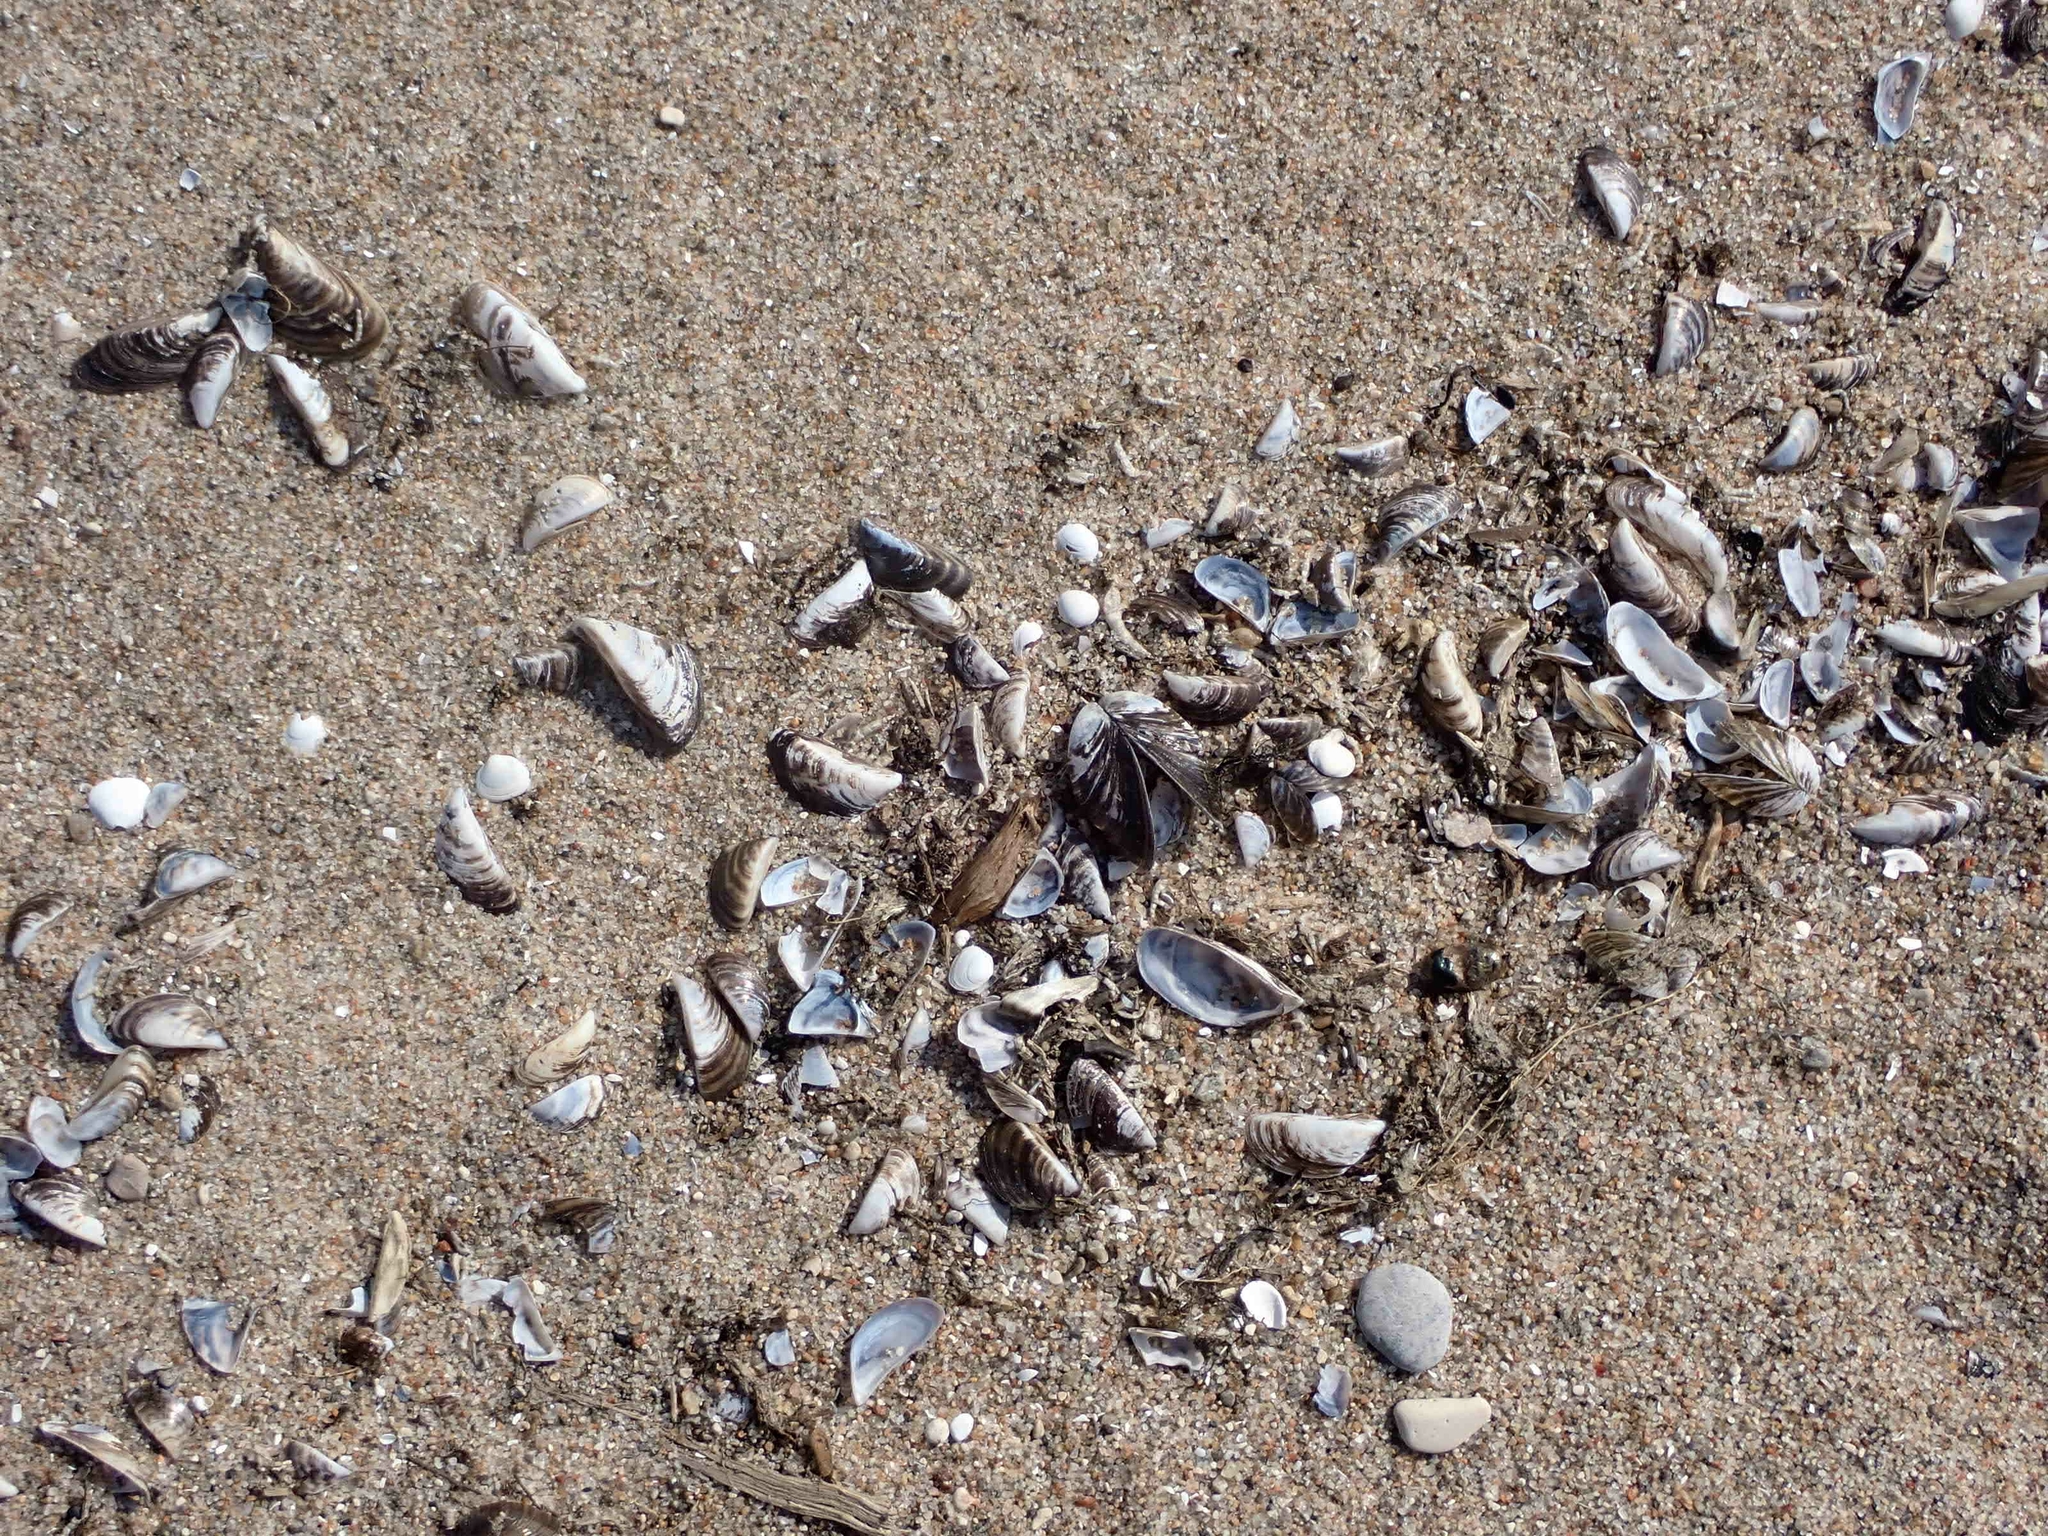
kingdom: Animalia
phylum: Mollusca
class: Bivalvia
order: Myida
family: Dreissenidae
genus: Dreissena
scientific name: Dreissena polymorpha
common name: Zebra mussel
